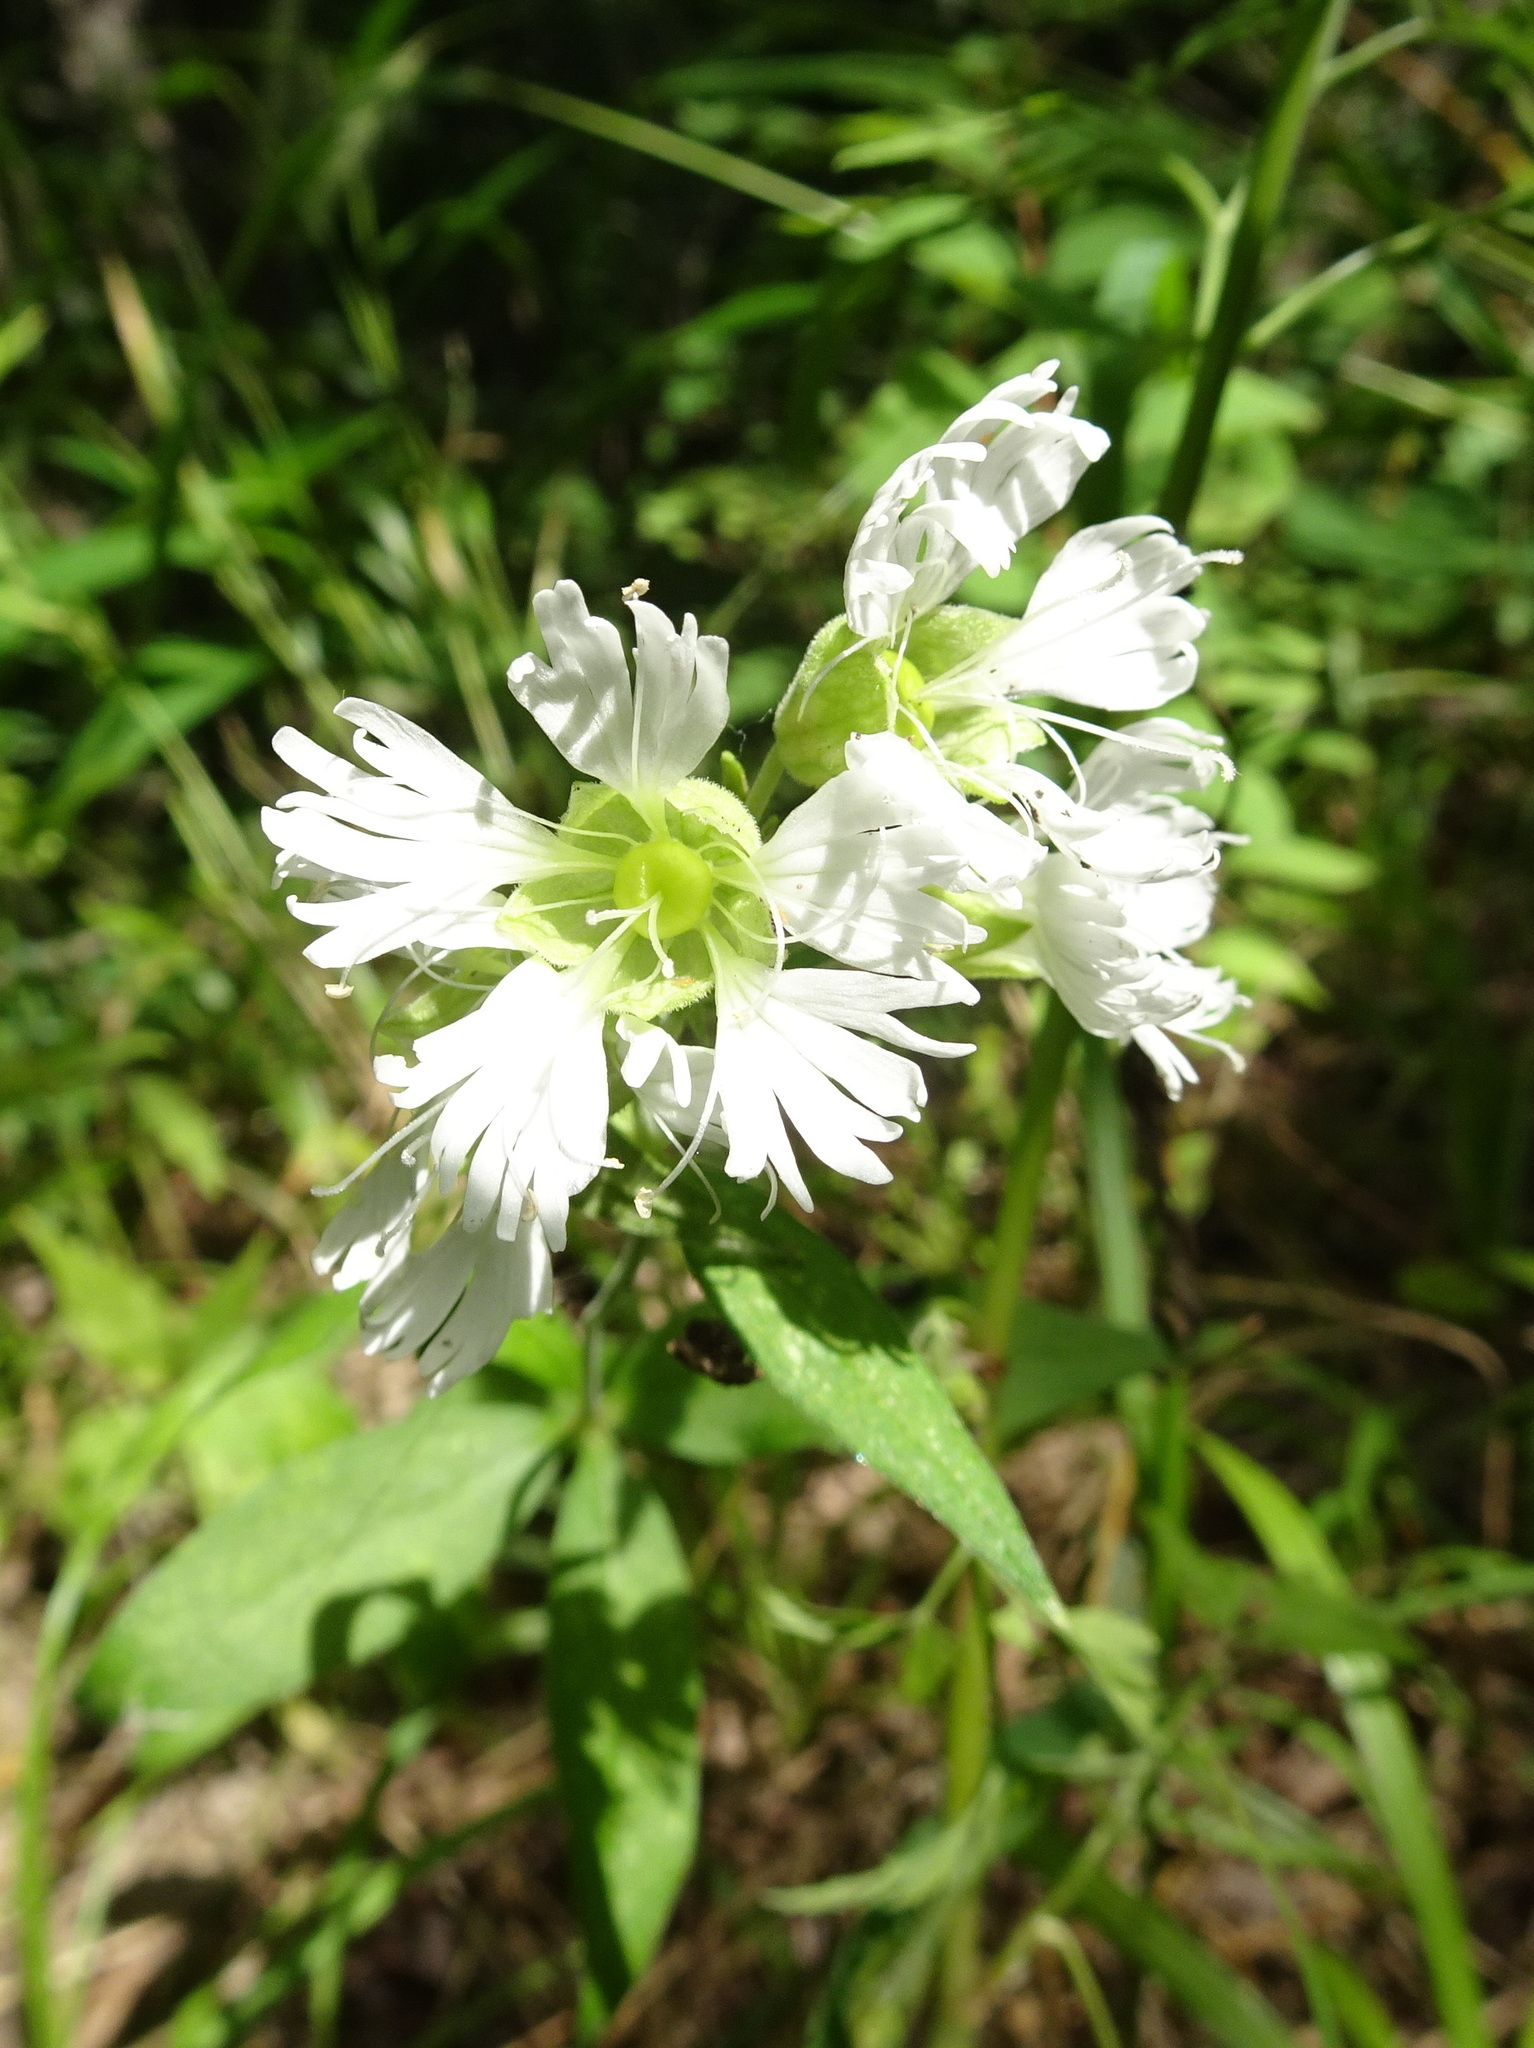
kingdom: Plantae
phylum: Tracheophyta
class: Magnoliopsida
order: Caryophyllales
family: Caryophyllaceae
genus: Silene
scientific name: Silene stellata
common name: Starry campion
